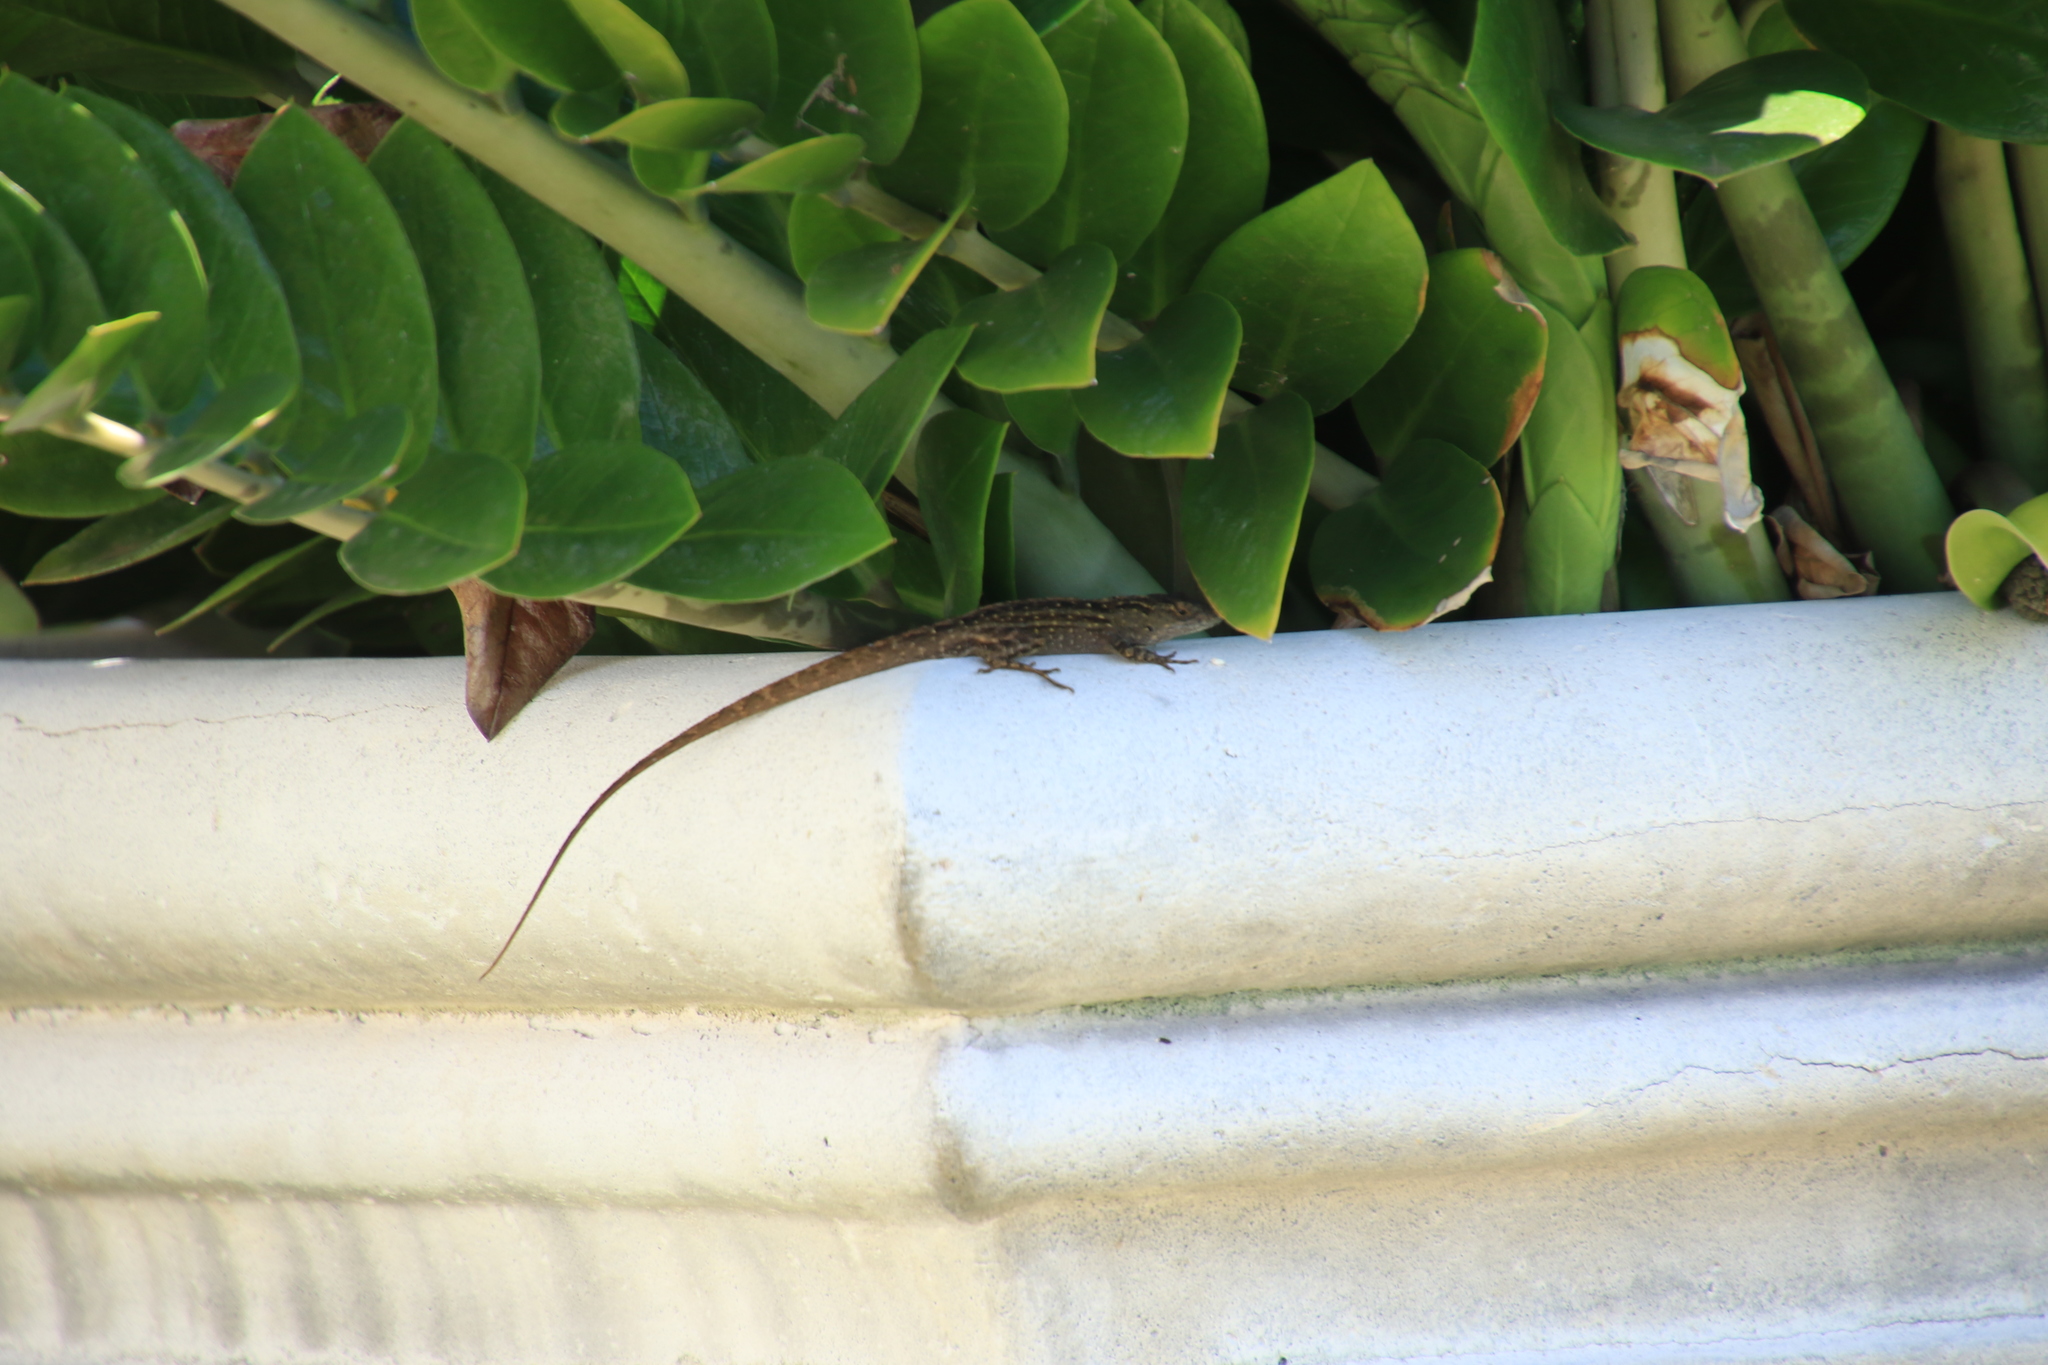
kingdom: Animalia
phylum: Chordata
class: Squamata
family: Dactyloidae
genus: Anolis
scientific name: Anolis sagrei
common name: Brown anole
